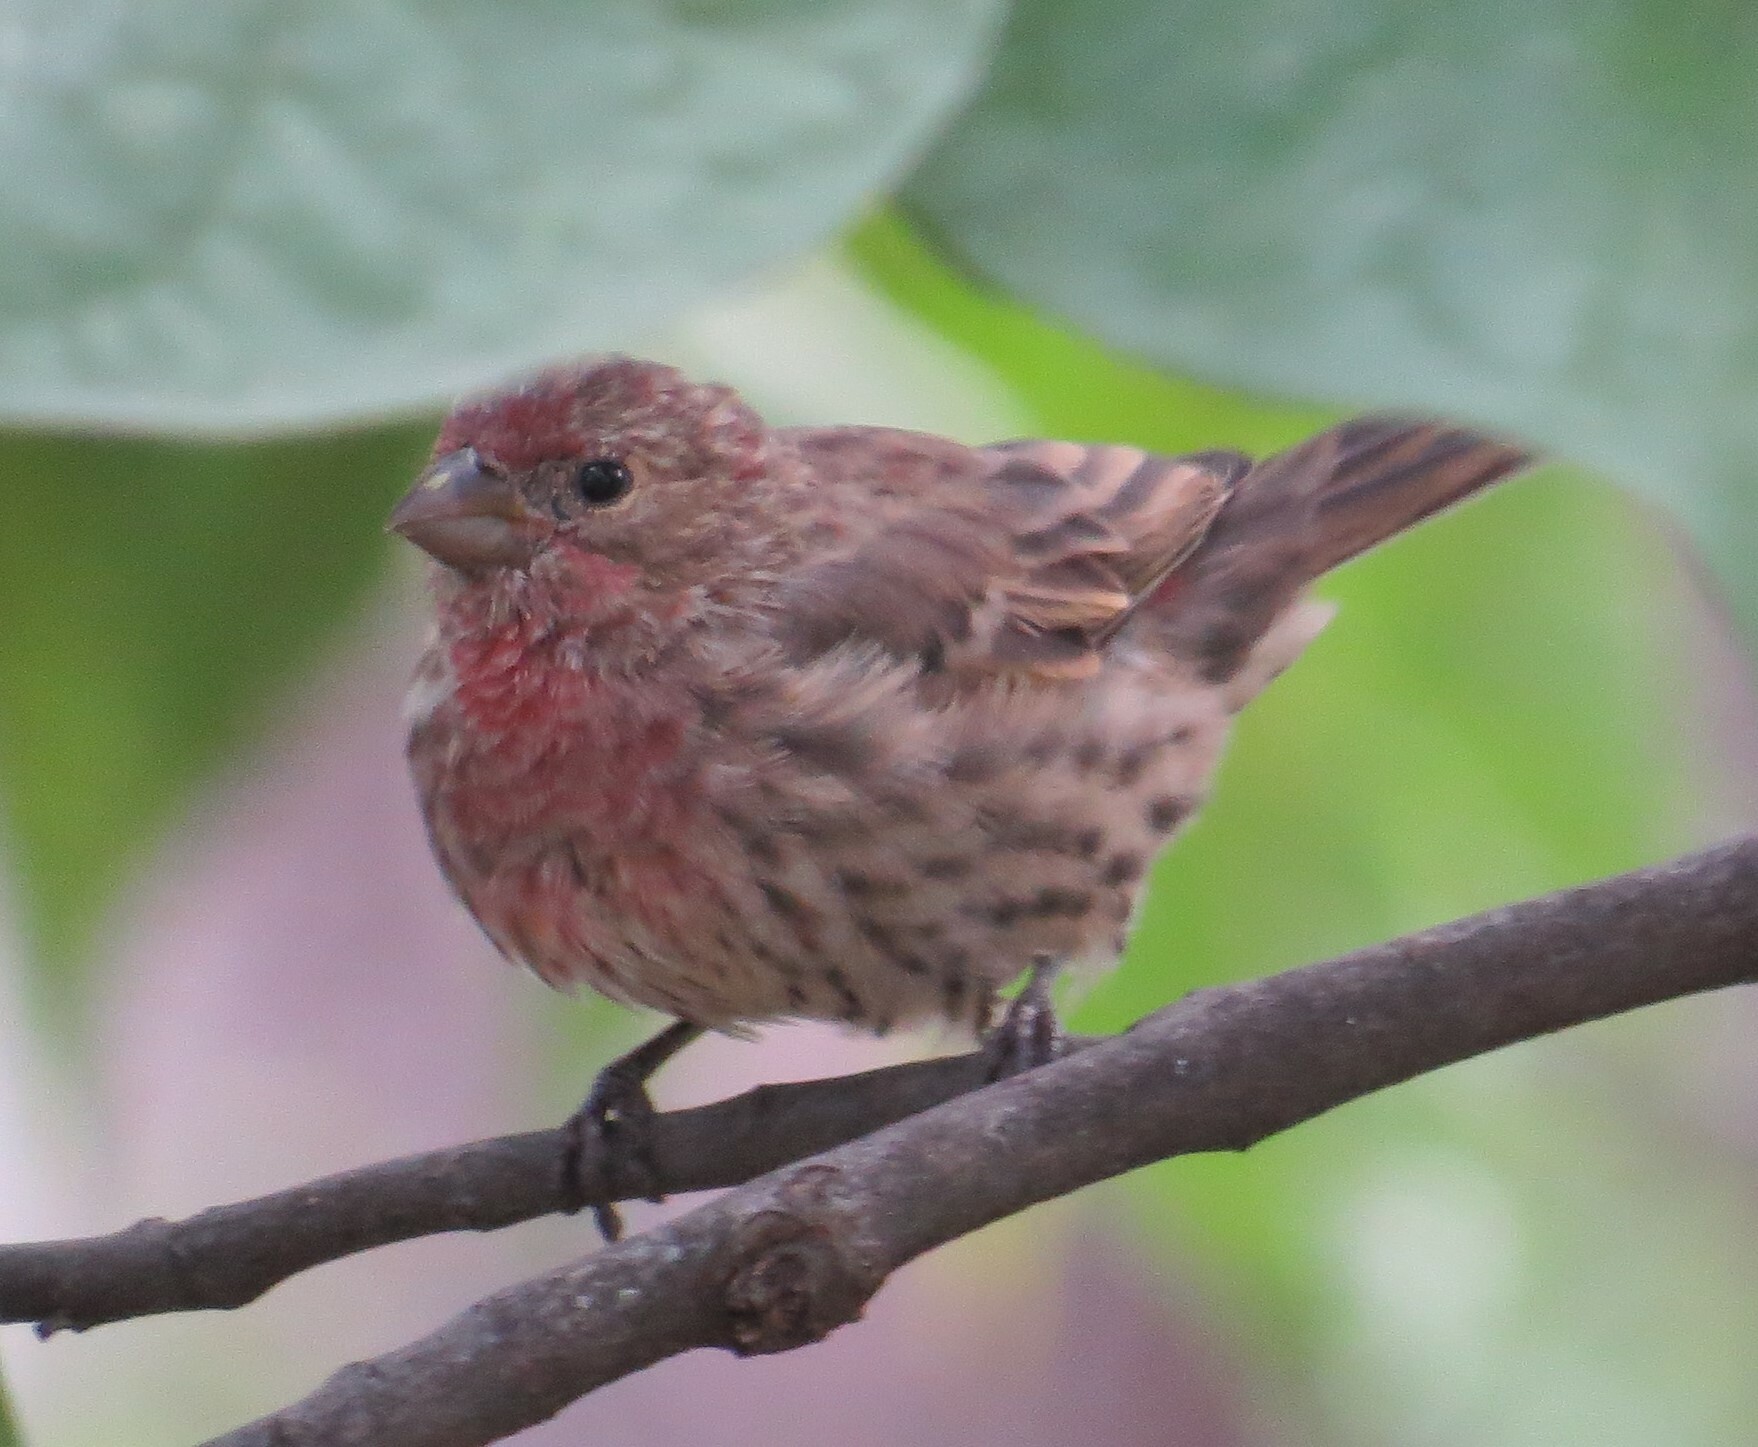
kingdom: Animalia
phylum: Chordata
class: Aves
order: Passeriformes
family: Fringillidae
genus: Haemorhous
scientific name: Haemorhous mexicanus
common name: House finch
